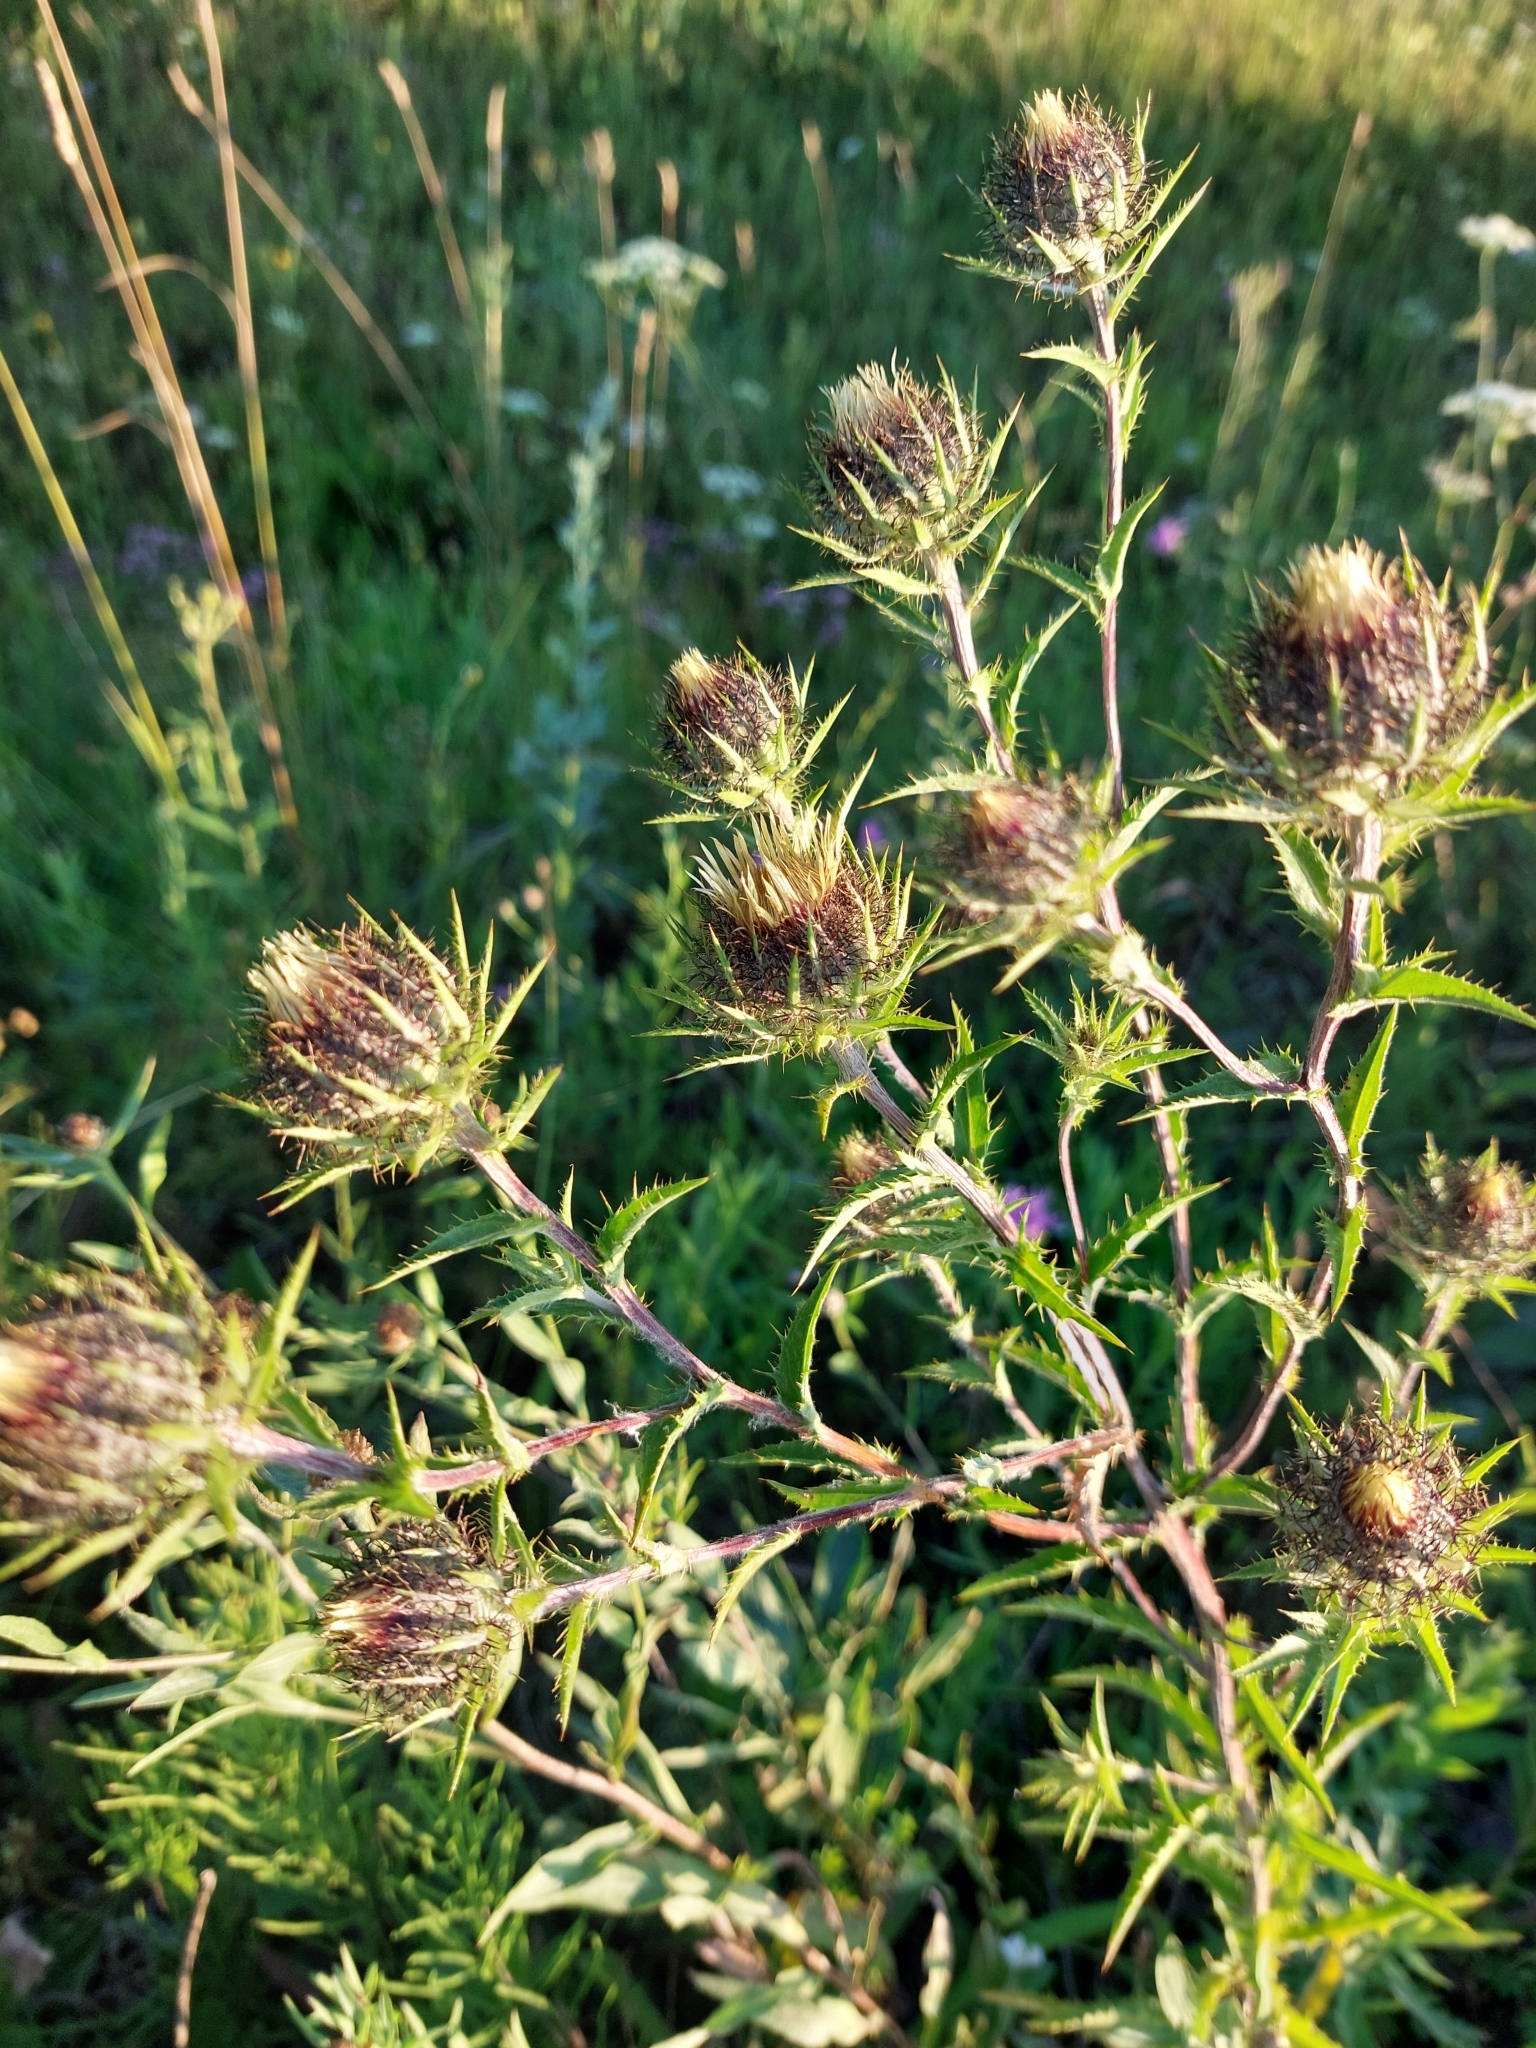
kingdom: Plantae
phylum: Tracheophyta
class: Magnoliopsida
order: Asterales
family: Asteraceae
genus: Carlina
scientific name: Carlina biebersteinii
